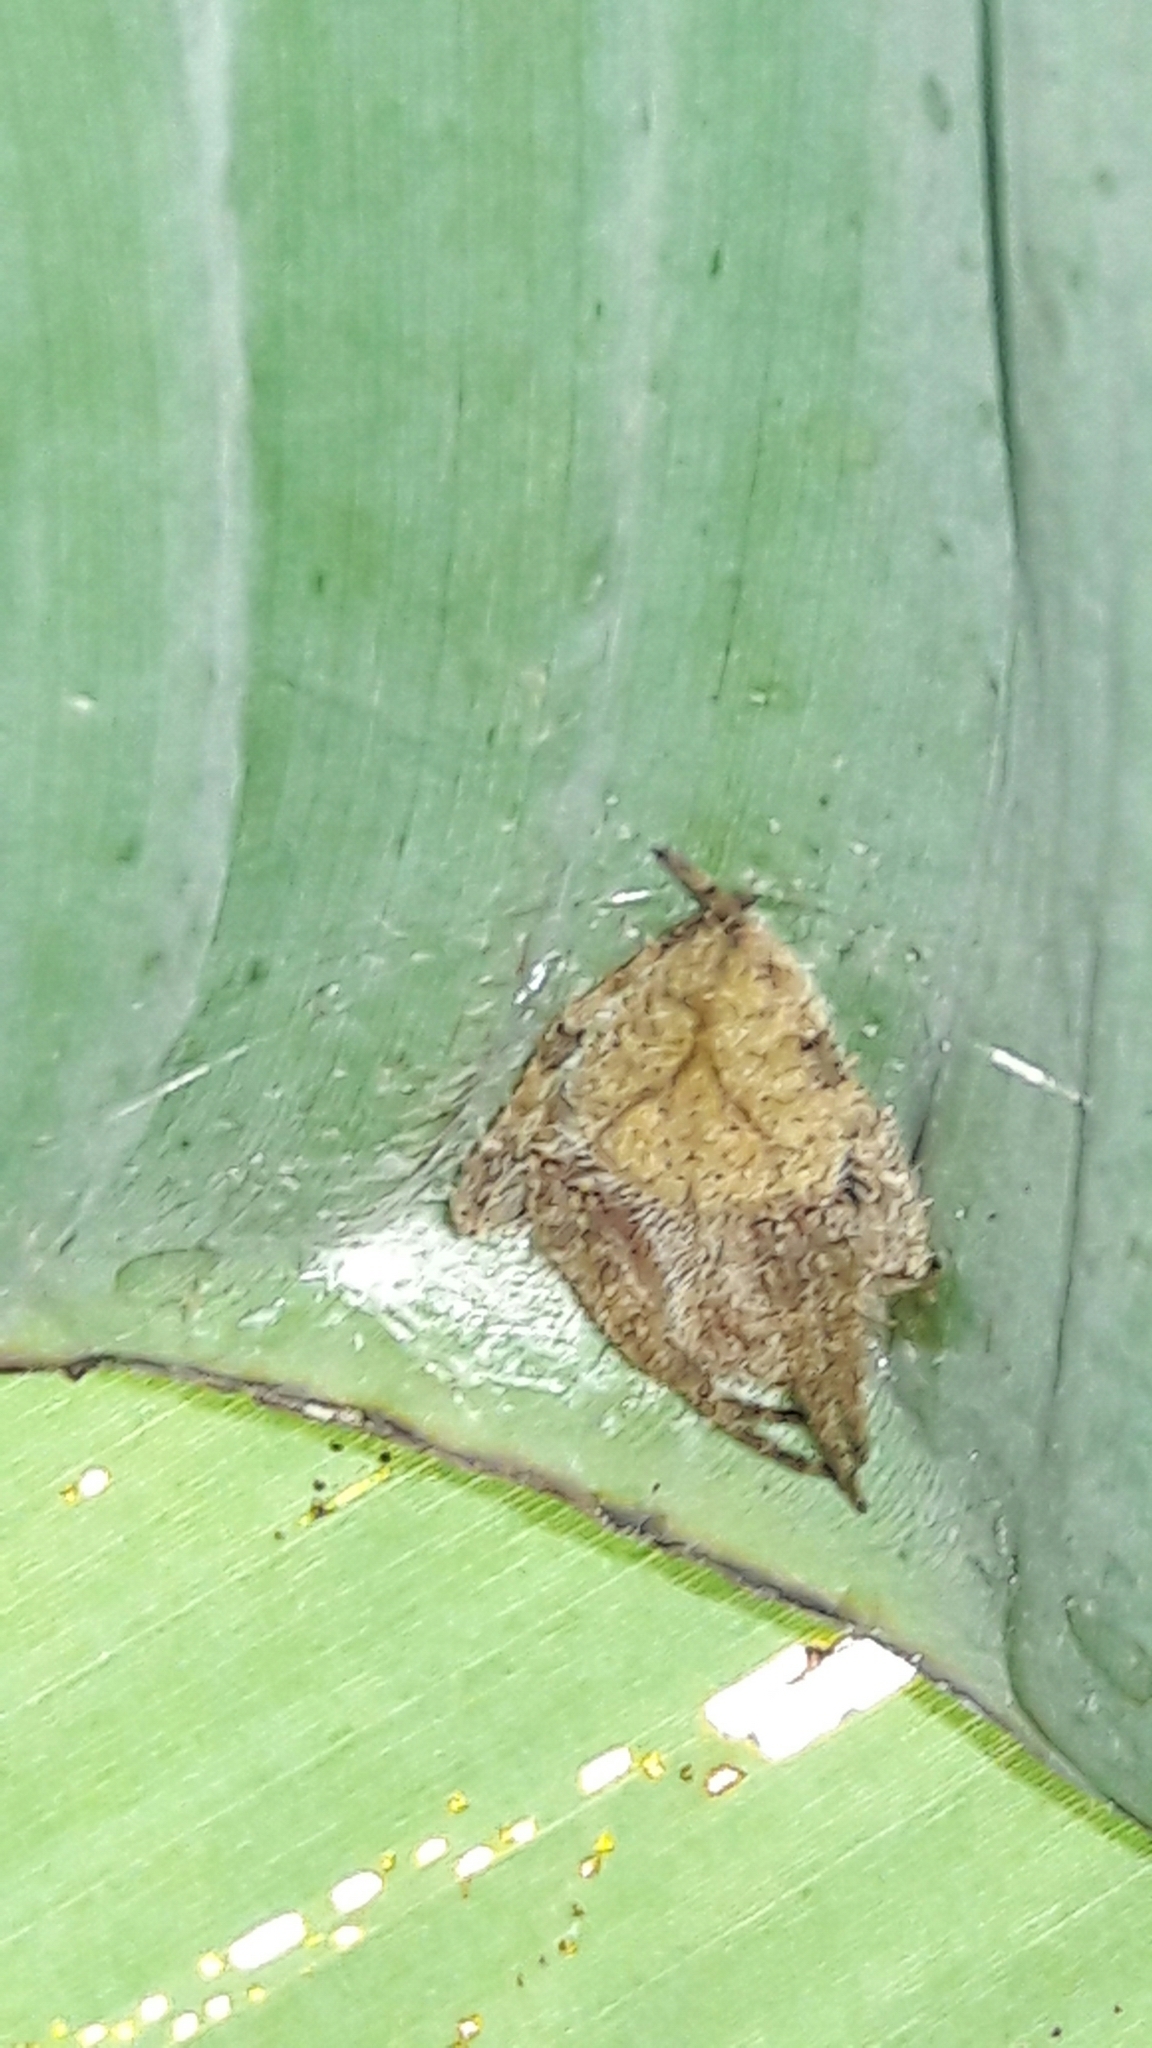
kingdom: Animalia
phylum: Arthropoda
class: Arachnida
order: Araneae
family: Araneidae
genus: Eriophora
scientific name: Eriophora edax
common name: Orb weavers
